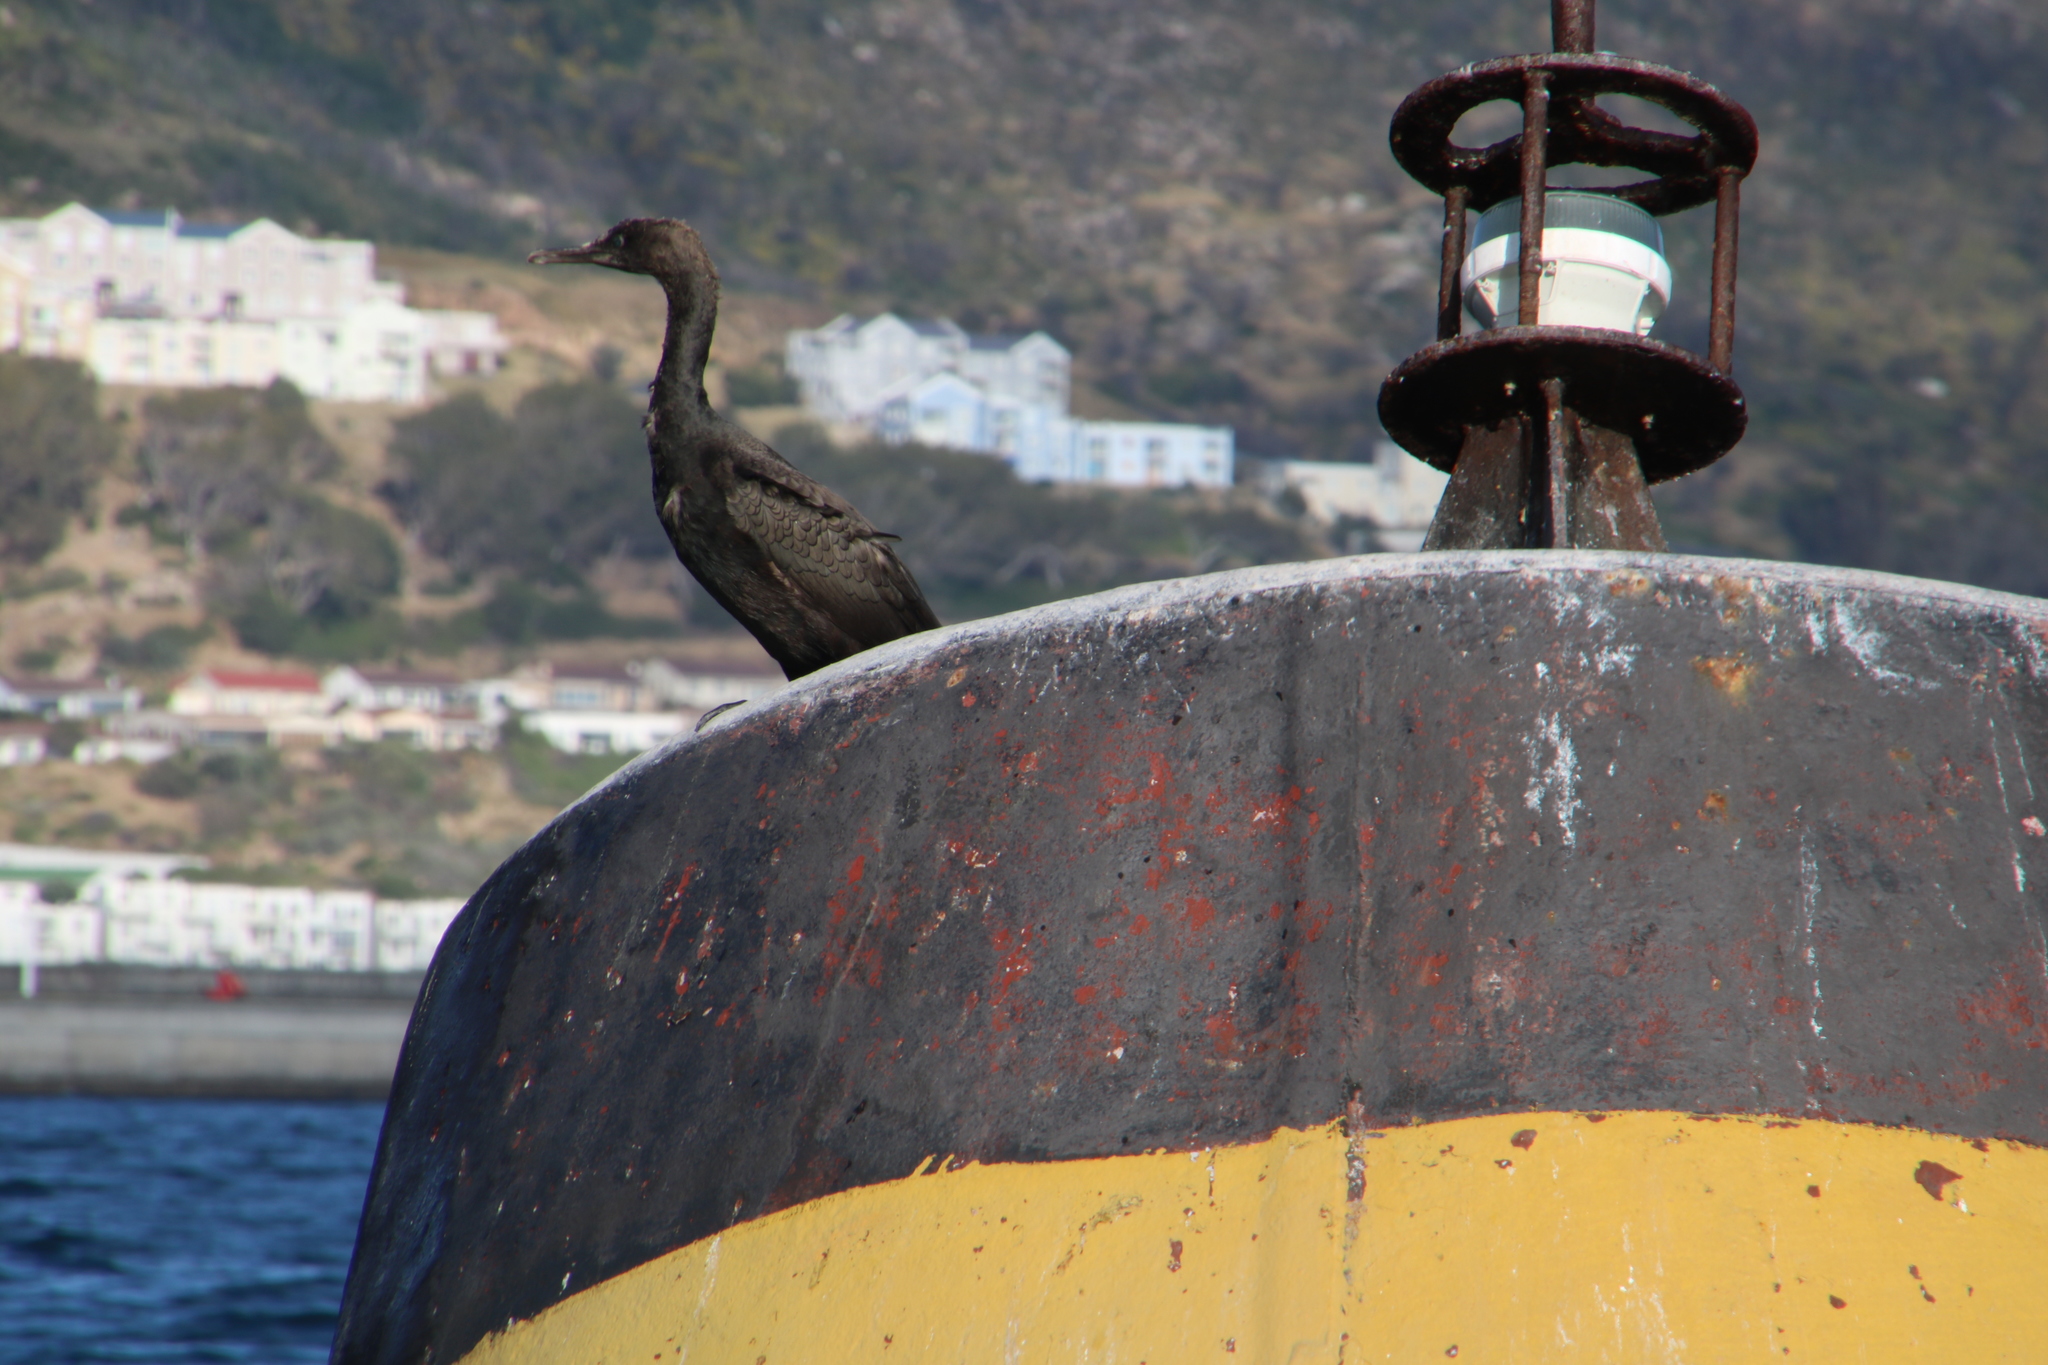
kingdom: Animalia
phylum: Chordata
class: Aves
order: Suliformes
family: Phalacrocoracidae
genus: Phalacrocorax
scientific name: Phalacrocorax neglectus
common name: Bank cormorant
